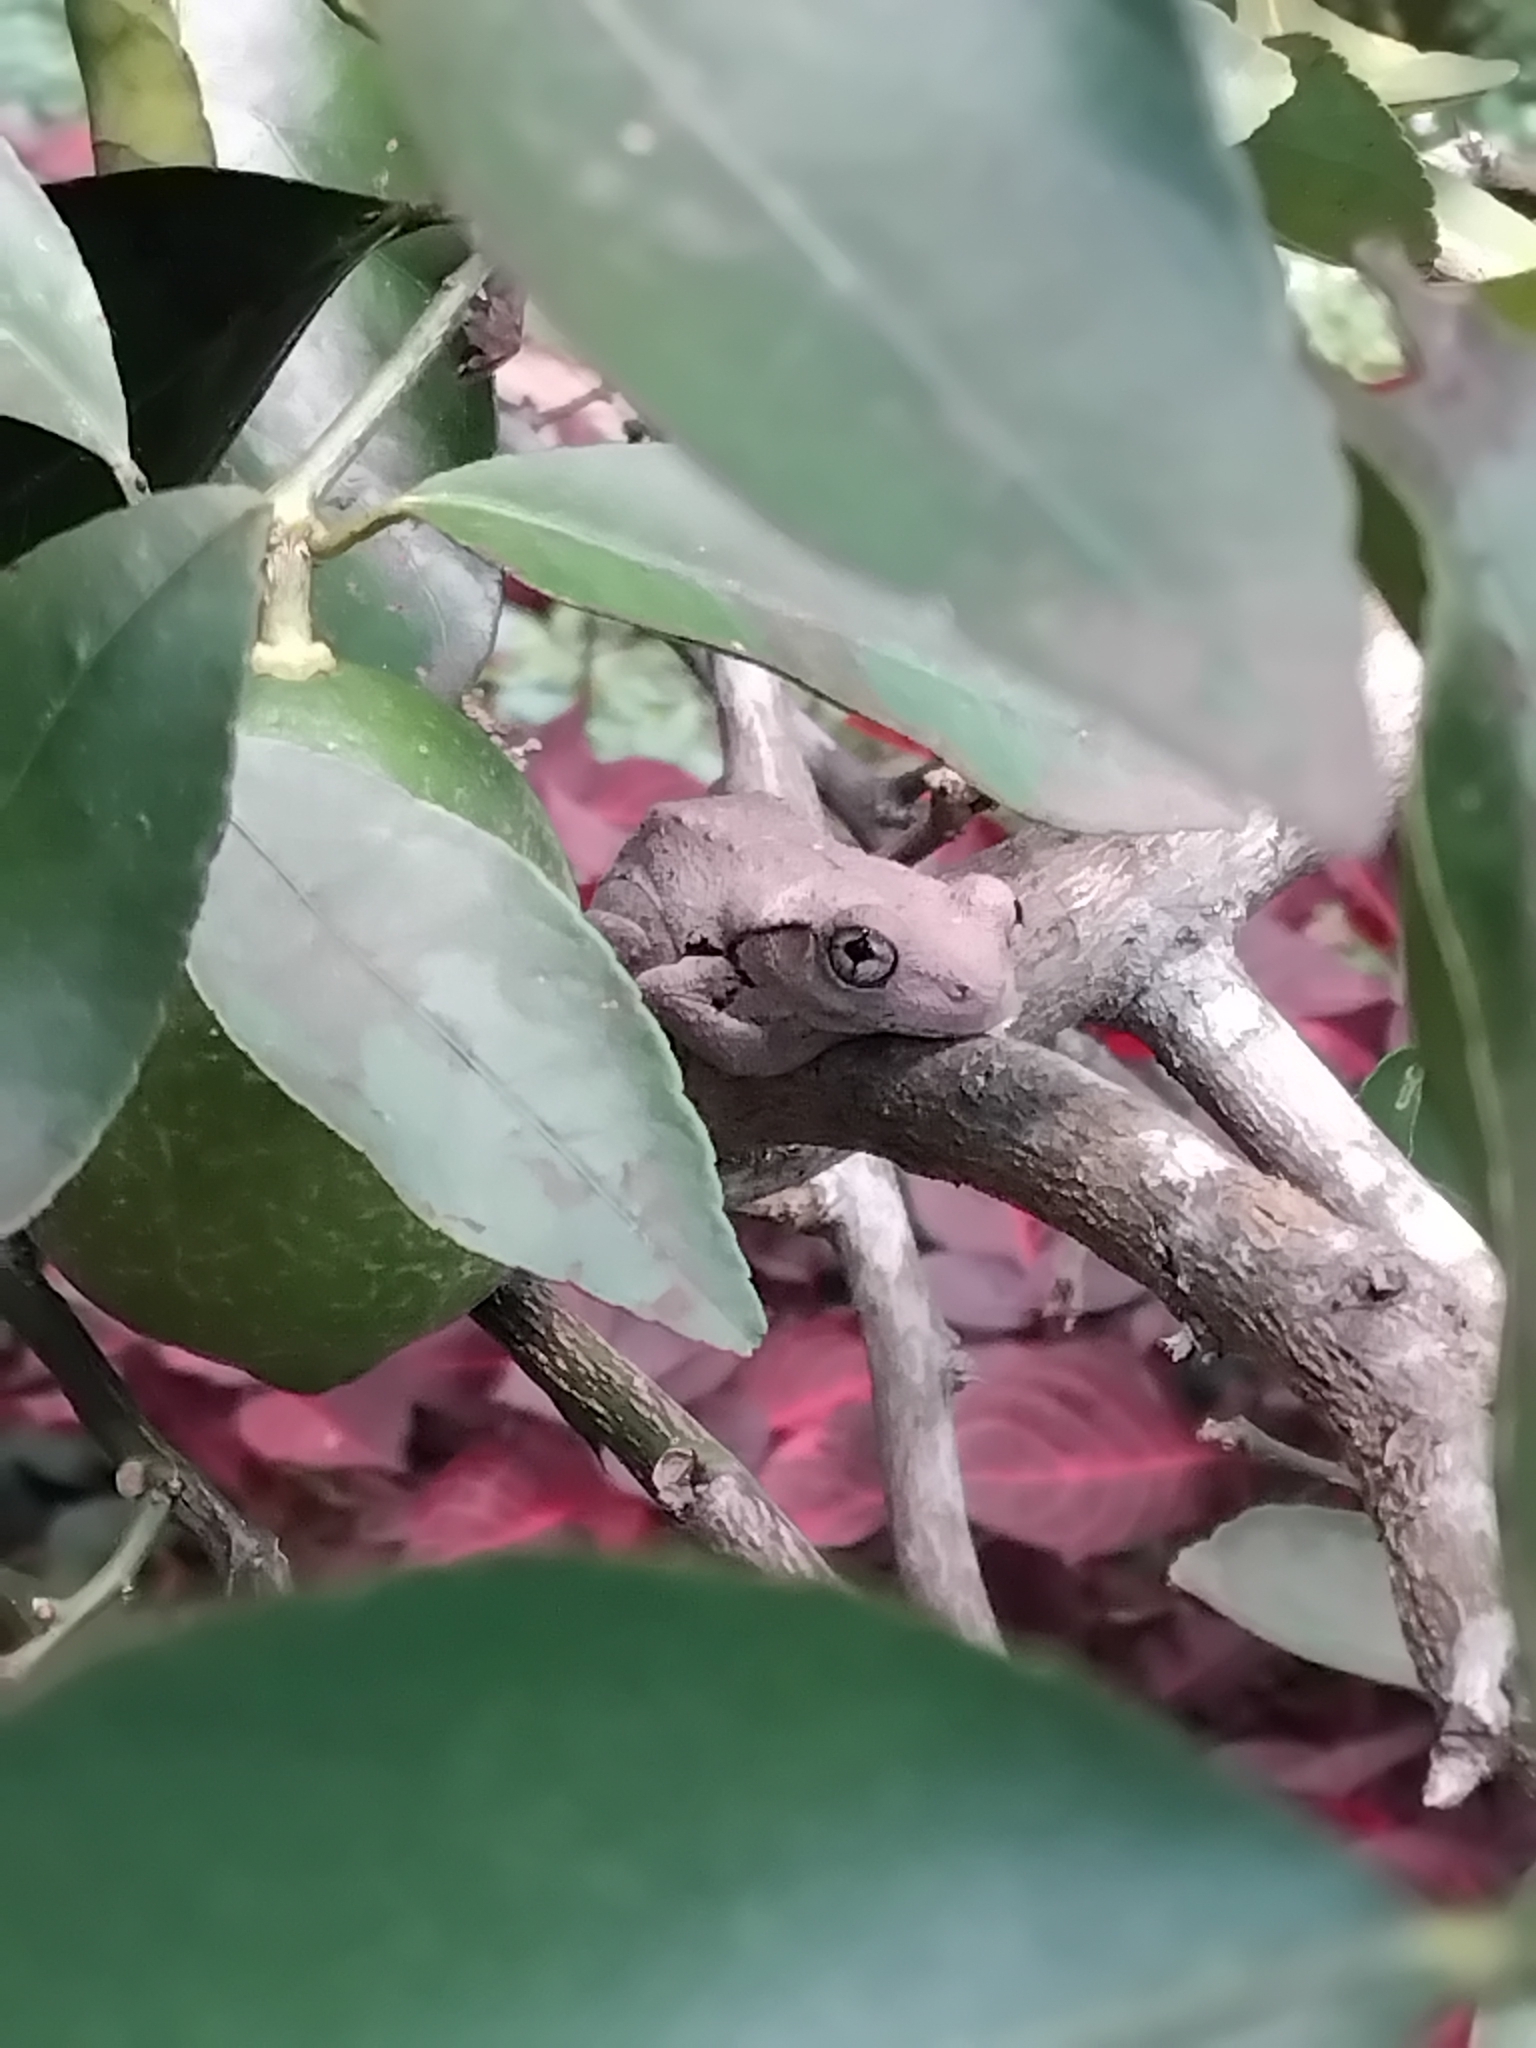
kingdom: Animalia
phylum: Chordata
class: Amphibia
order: Anura
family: Pelodryadidae
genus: Litoria
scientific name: Litoria peronii
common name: Emerald spotted treefrog
